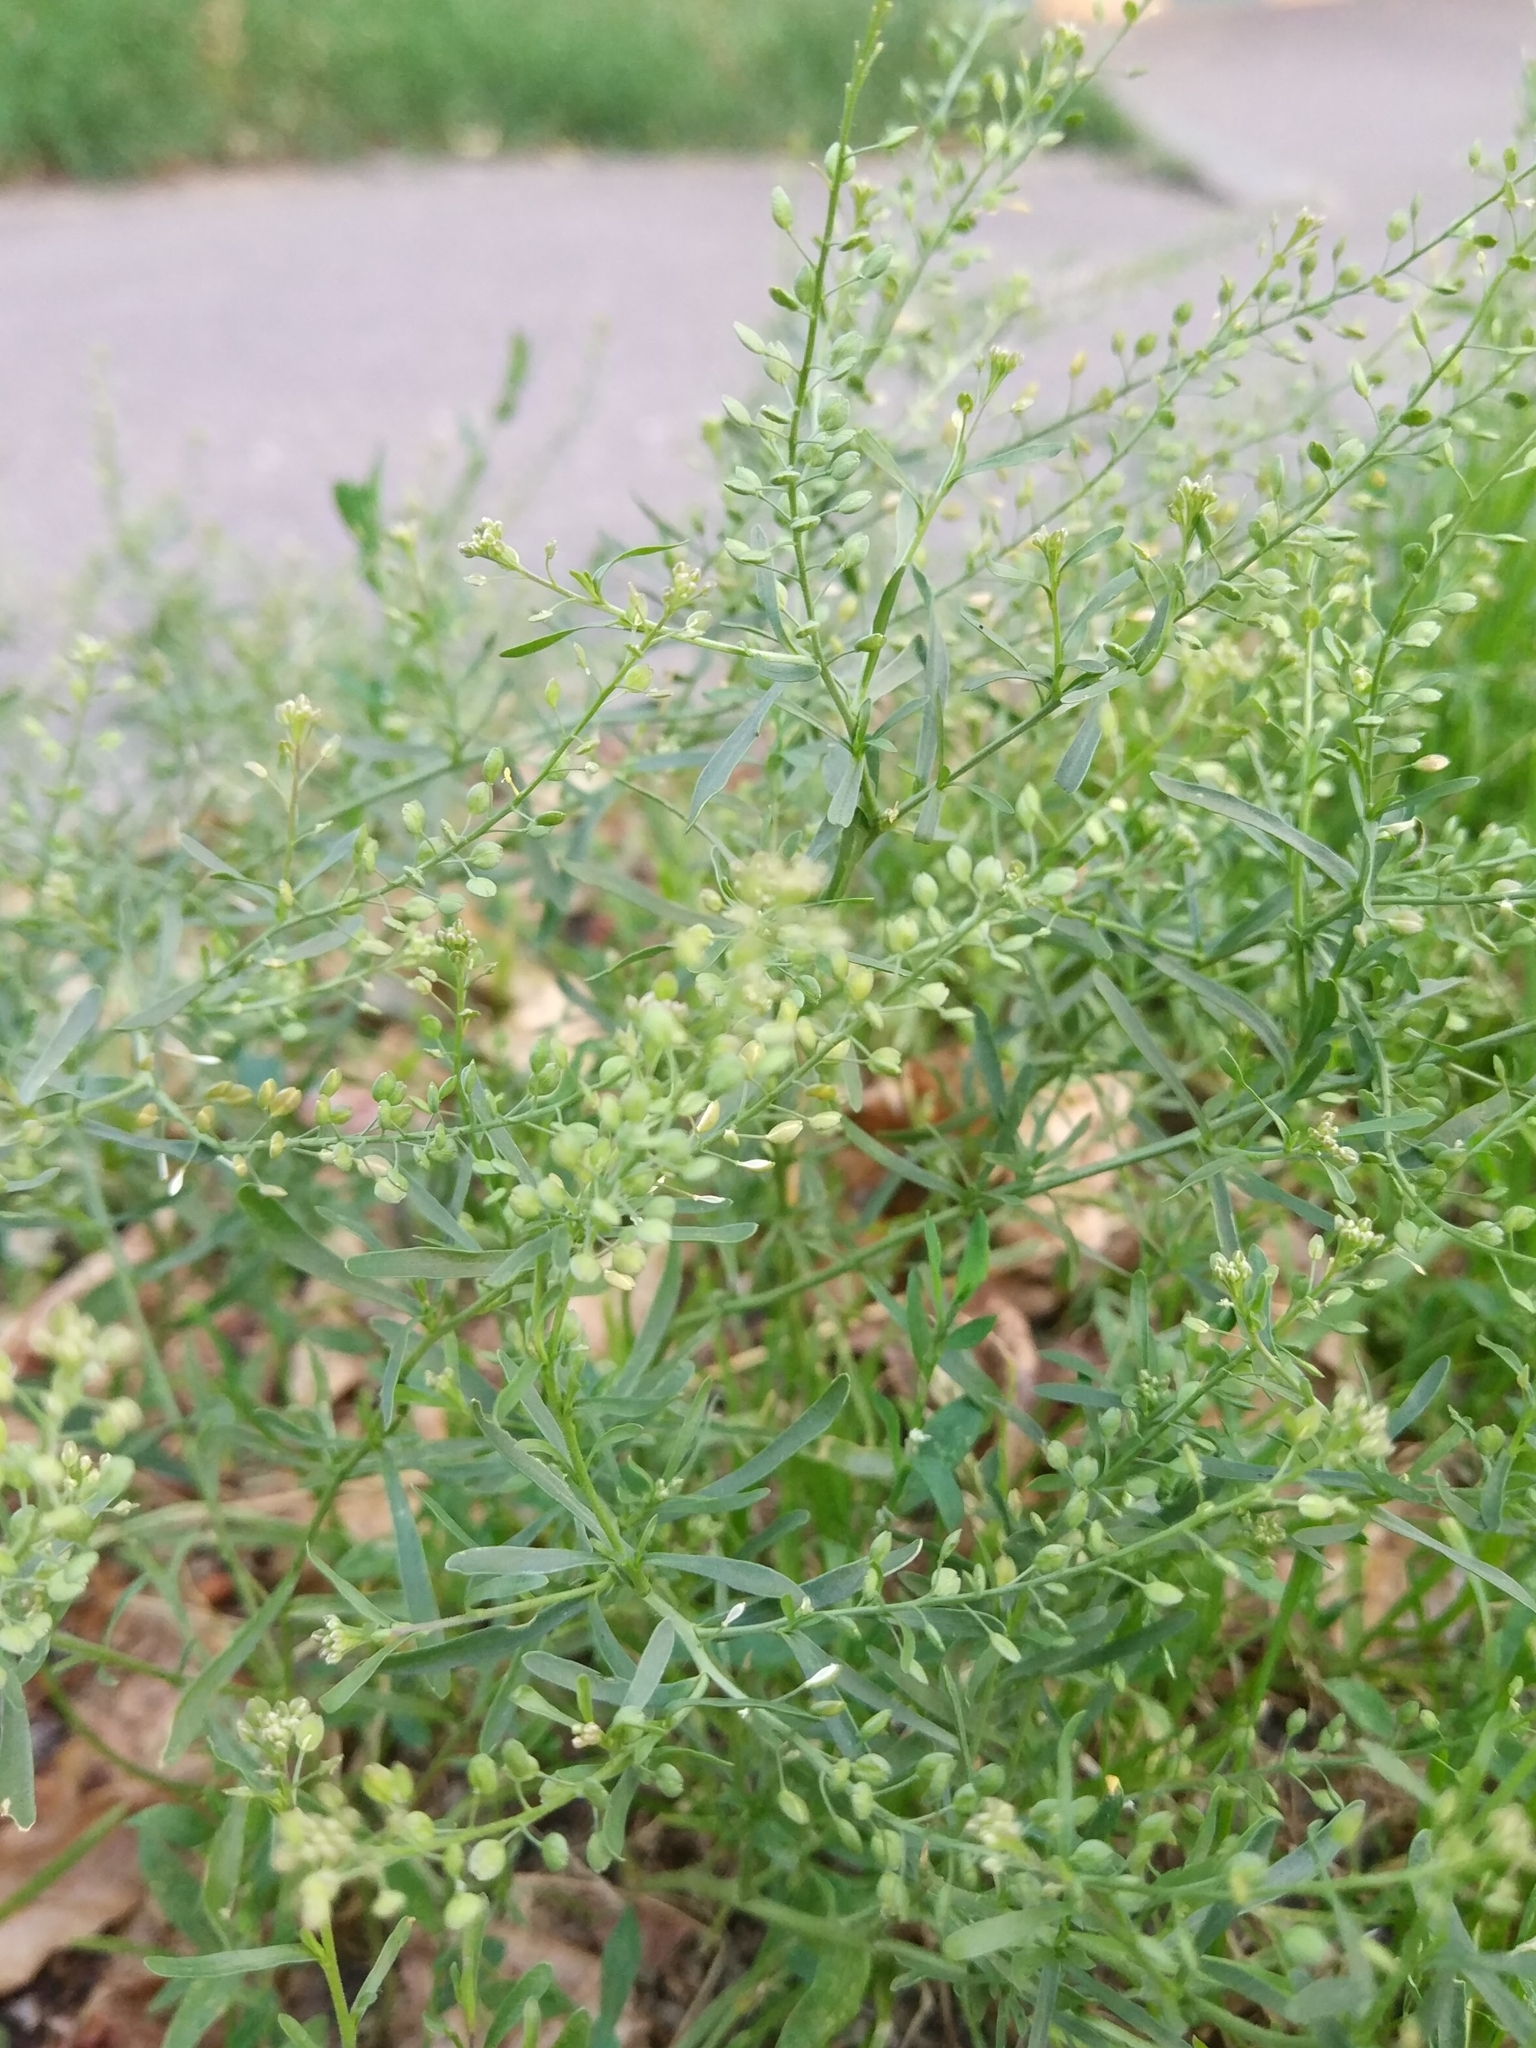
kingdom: Plantae
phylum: Tracheophyta
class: Magnoliopsida
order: Brassicales
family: Brassicaceae
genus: Lepidium
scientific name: Lepidium ruderale
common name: Narrow-leaved pepperwort
